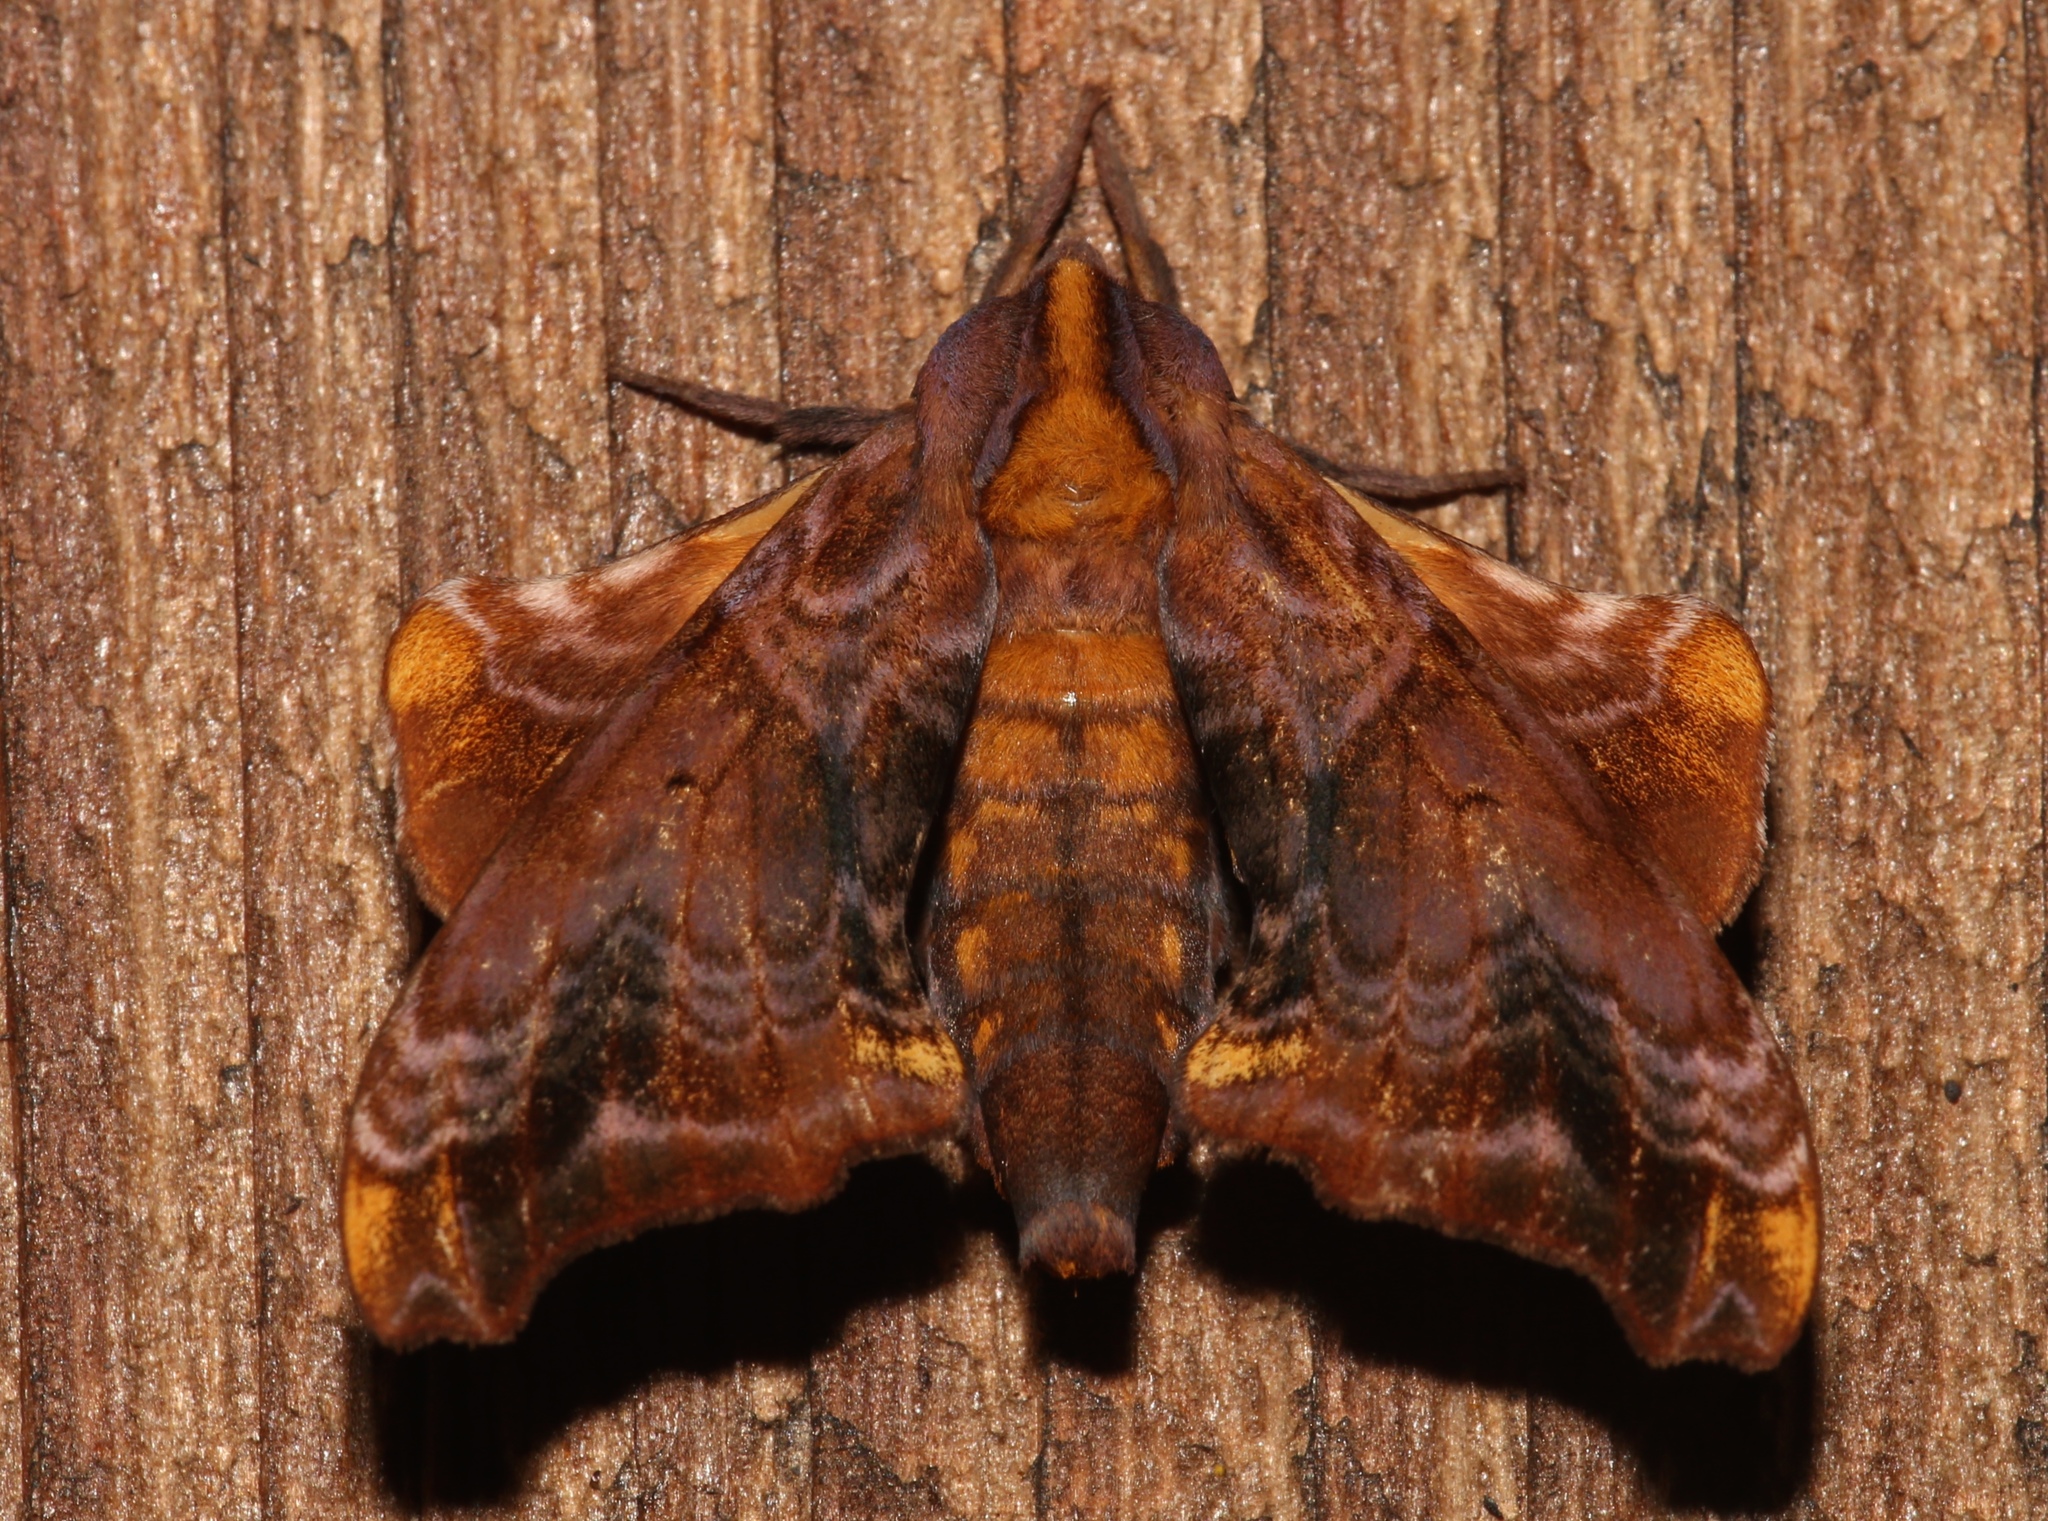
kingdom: Animalia
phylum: Arthropoda
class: Insecta
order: Lepidoptera
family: Sphingidae
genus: Paonias
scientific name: Paonias myops
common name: Small-eyed sphinx
